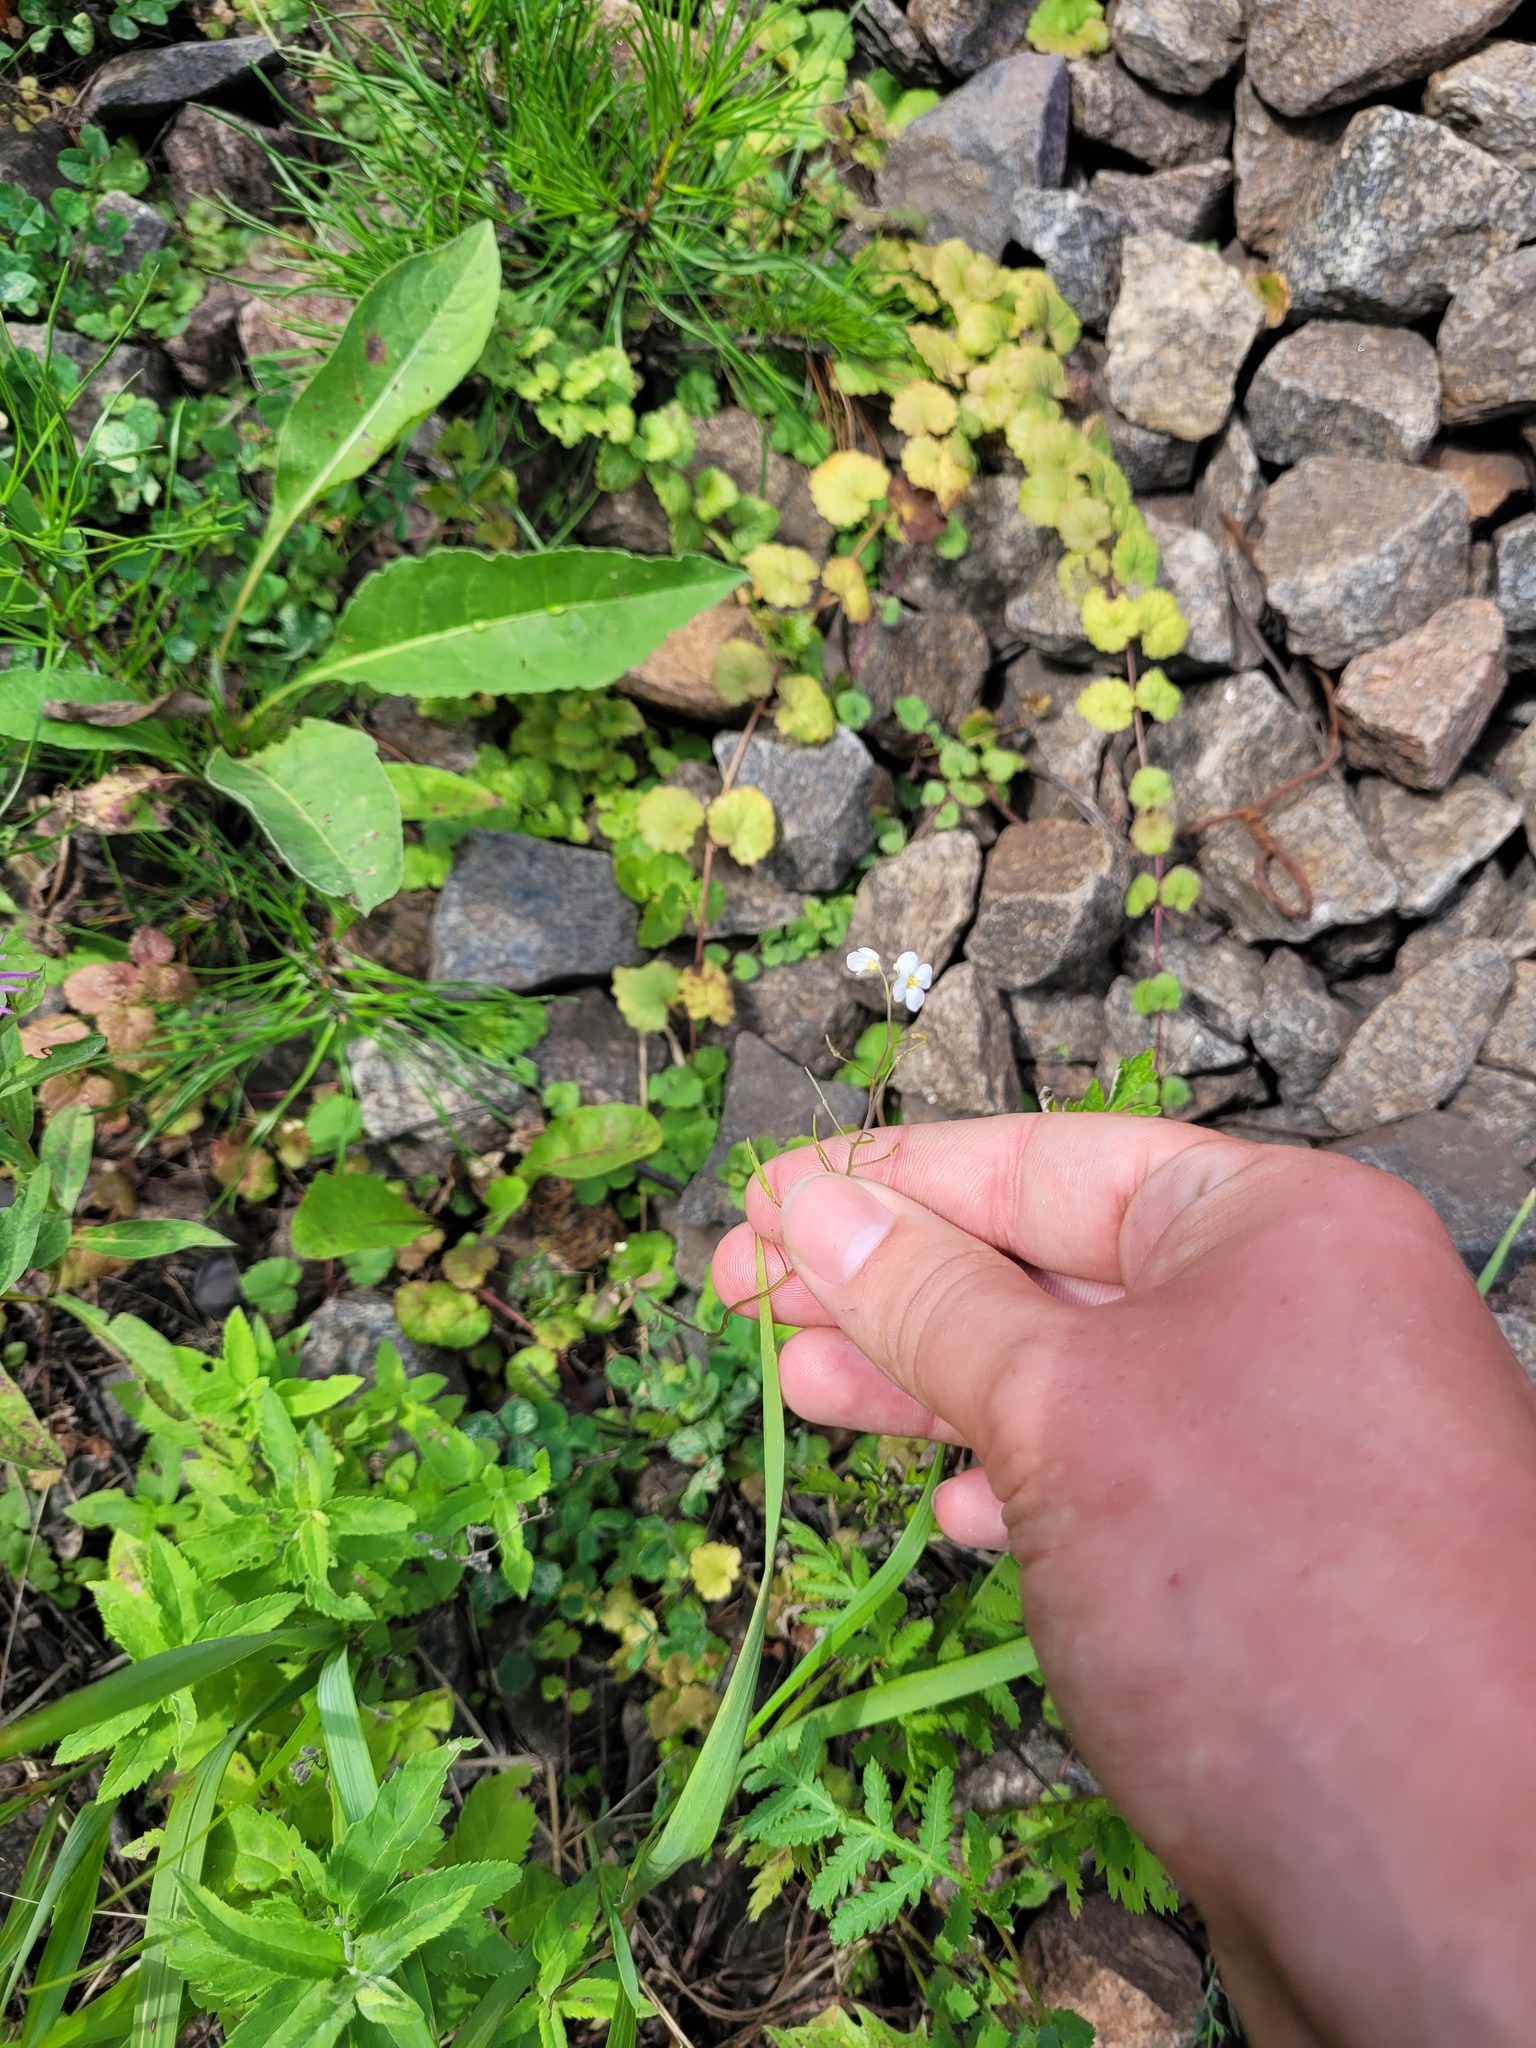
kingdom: Plantae
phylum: Tracheophyta
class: Magnoliopsida
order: Brassicales
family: Brassicaceae
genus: Arabidopsis
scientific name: Arabidopsis arenosa
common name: Sand rock-cress
